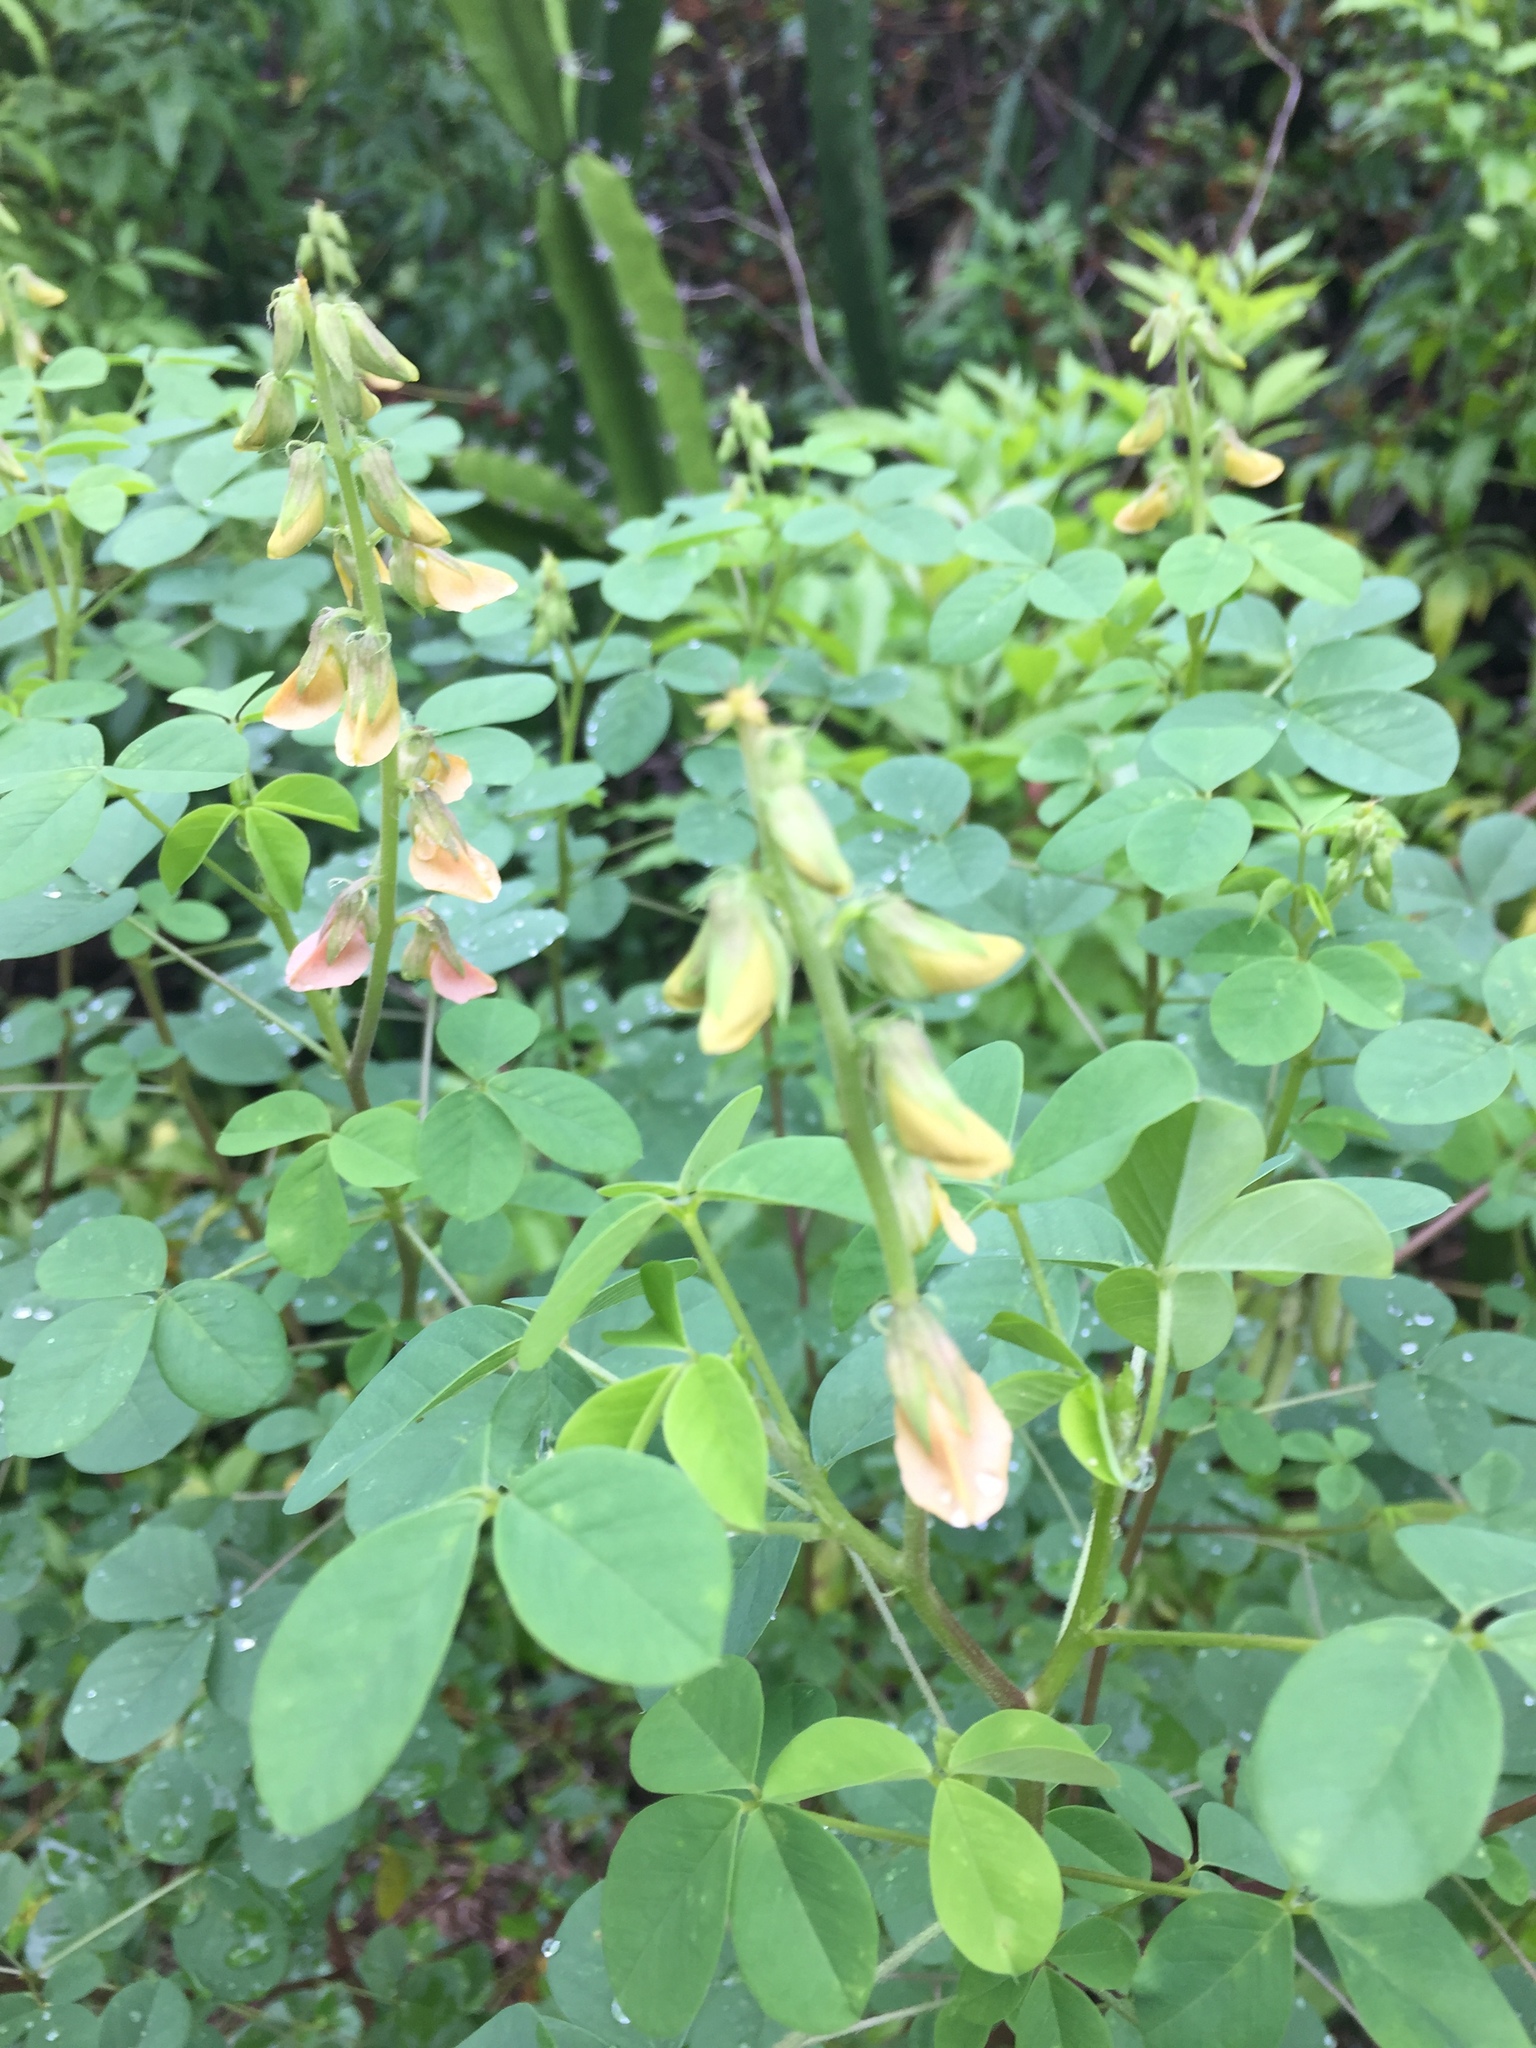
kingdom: Plantae
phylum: Tracheophyta
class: Magnoliopsida
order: Fabales
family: Fabaceae
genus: Crotalaria
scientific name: Crotalaria pallida
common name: Smooth rattlebox
